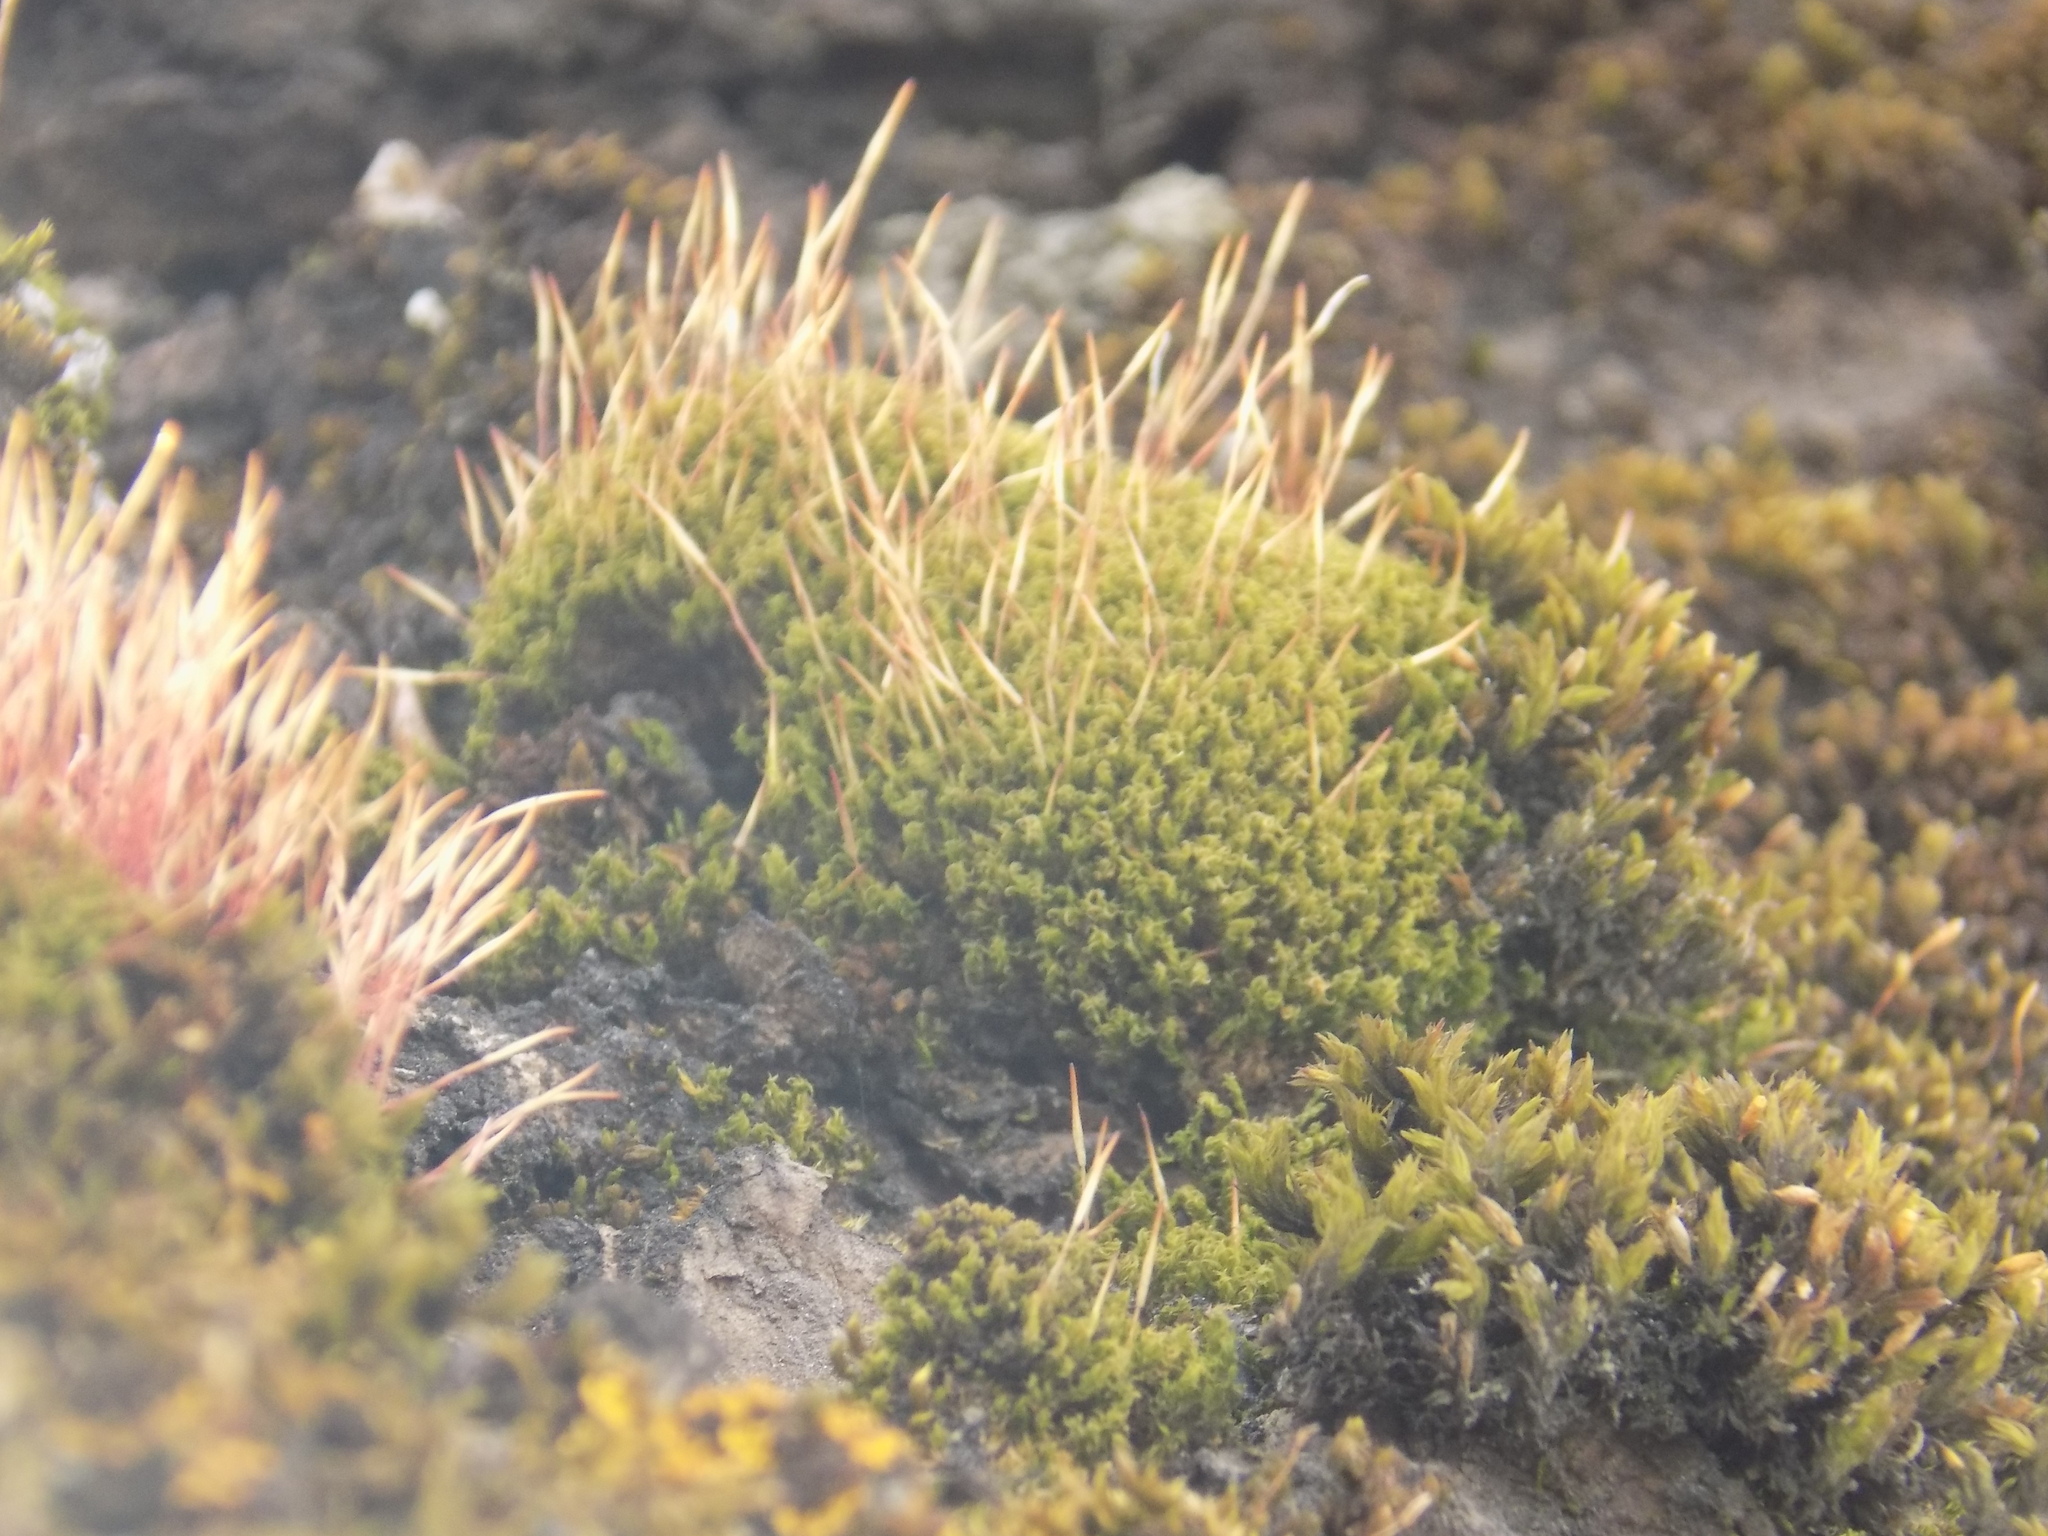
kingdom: Plantae
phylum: Bryophyta
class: Bryopsida
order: Dicranales
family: Ditrichaceae
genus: Ceratodon
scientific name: Ceratodon purpureus
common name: Redshank
